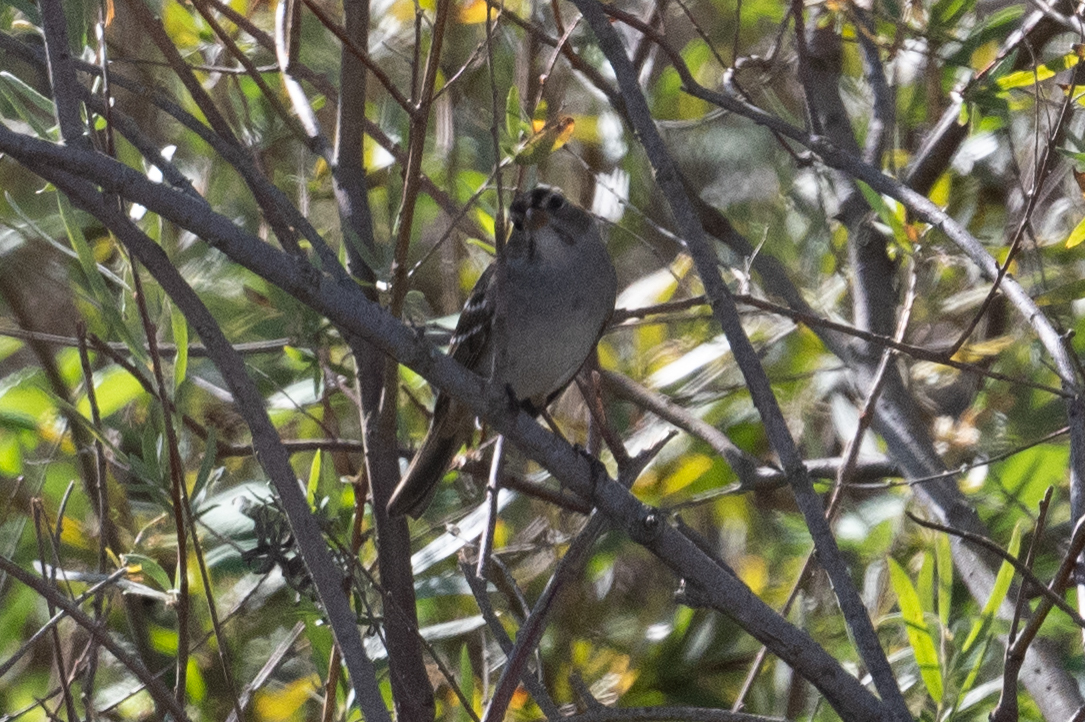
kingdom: Animalia
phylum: Chordata
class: Aves
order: Passeriformes
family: Passerellidae
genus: Zonotrichia
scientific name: Zonotrichia leucophrys
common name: White-crowned sparrow
